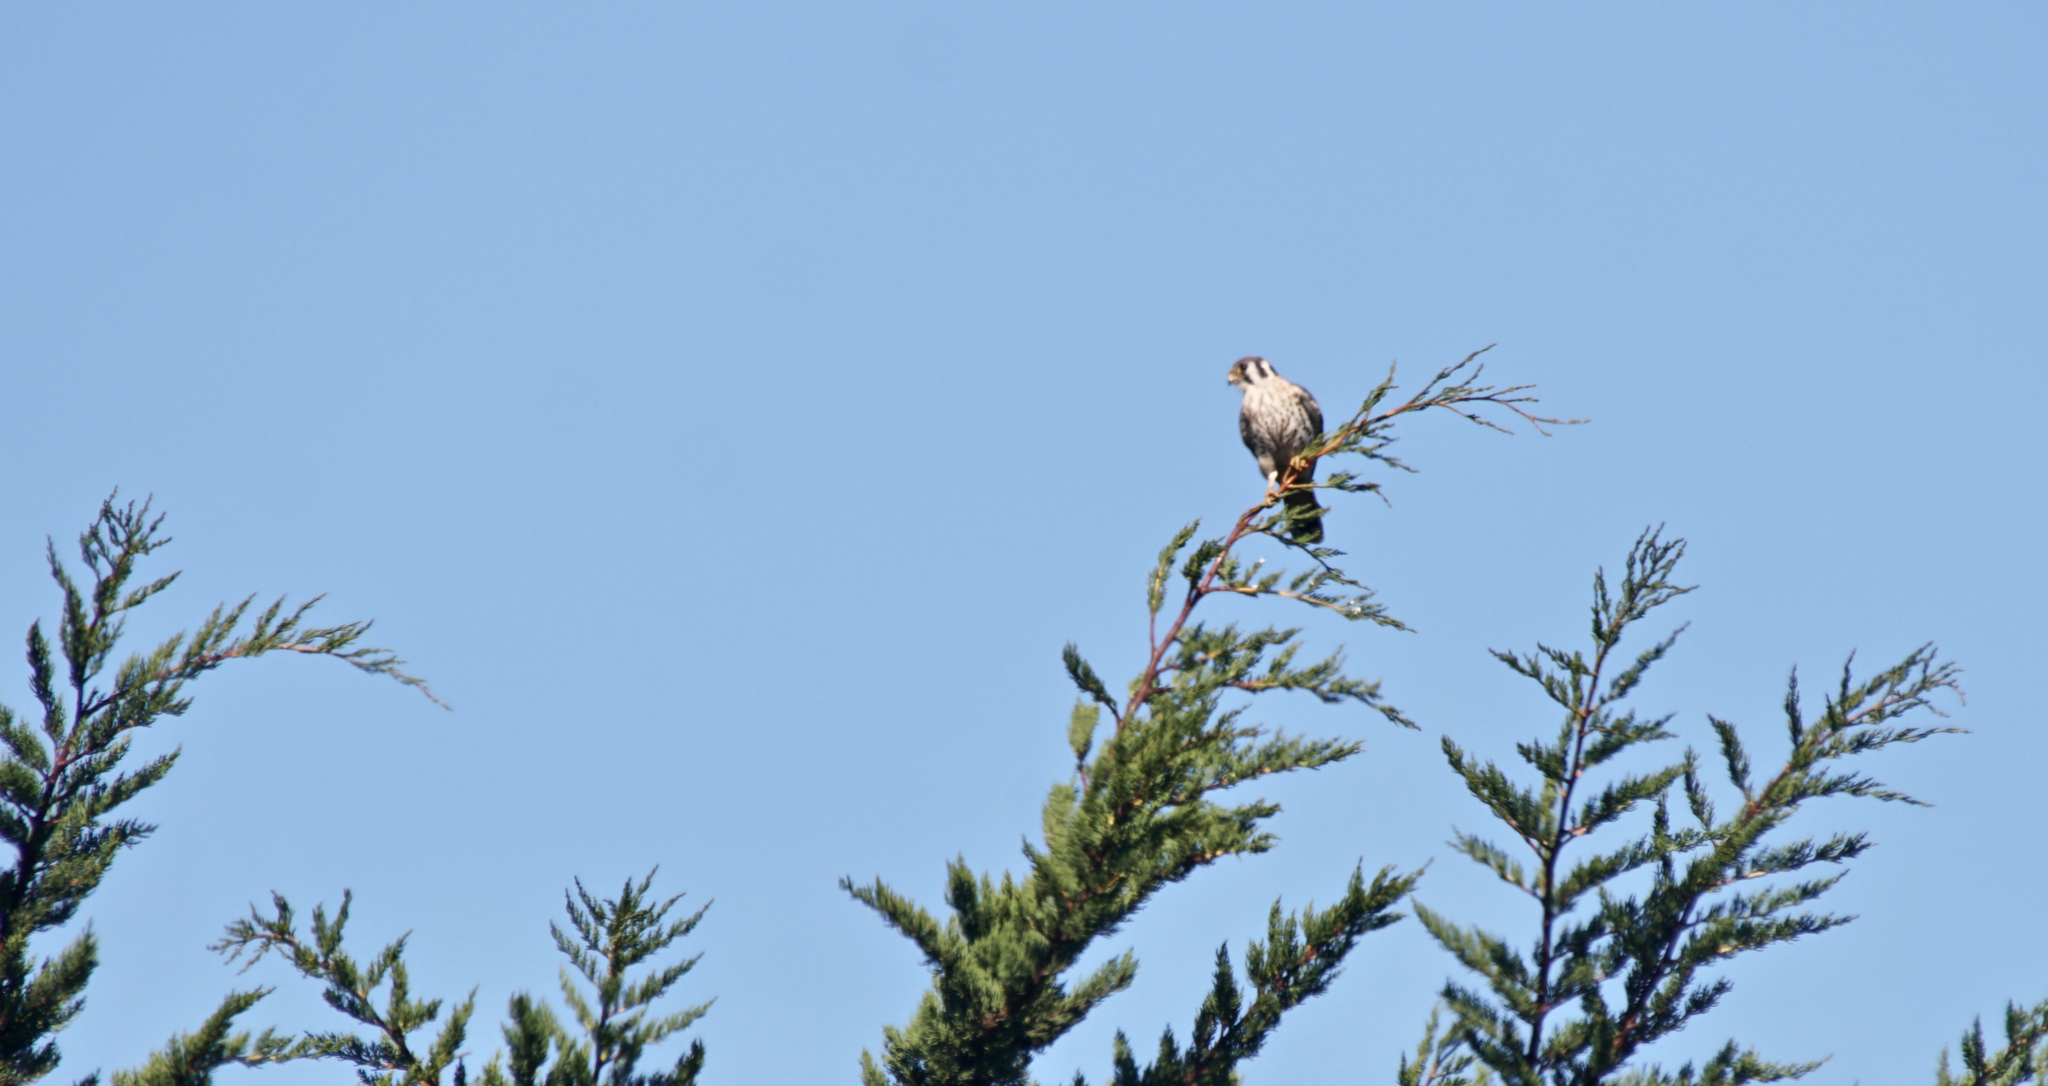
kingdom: Animalia
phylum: Chordata
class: Aves
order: Falconiformes
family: Falconidae
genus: Falco
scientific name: Falco sparverius
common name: American kestrel
